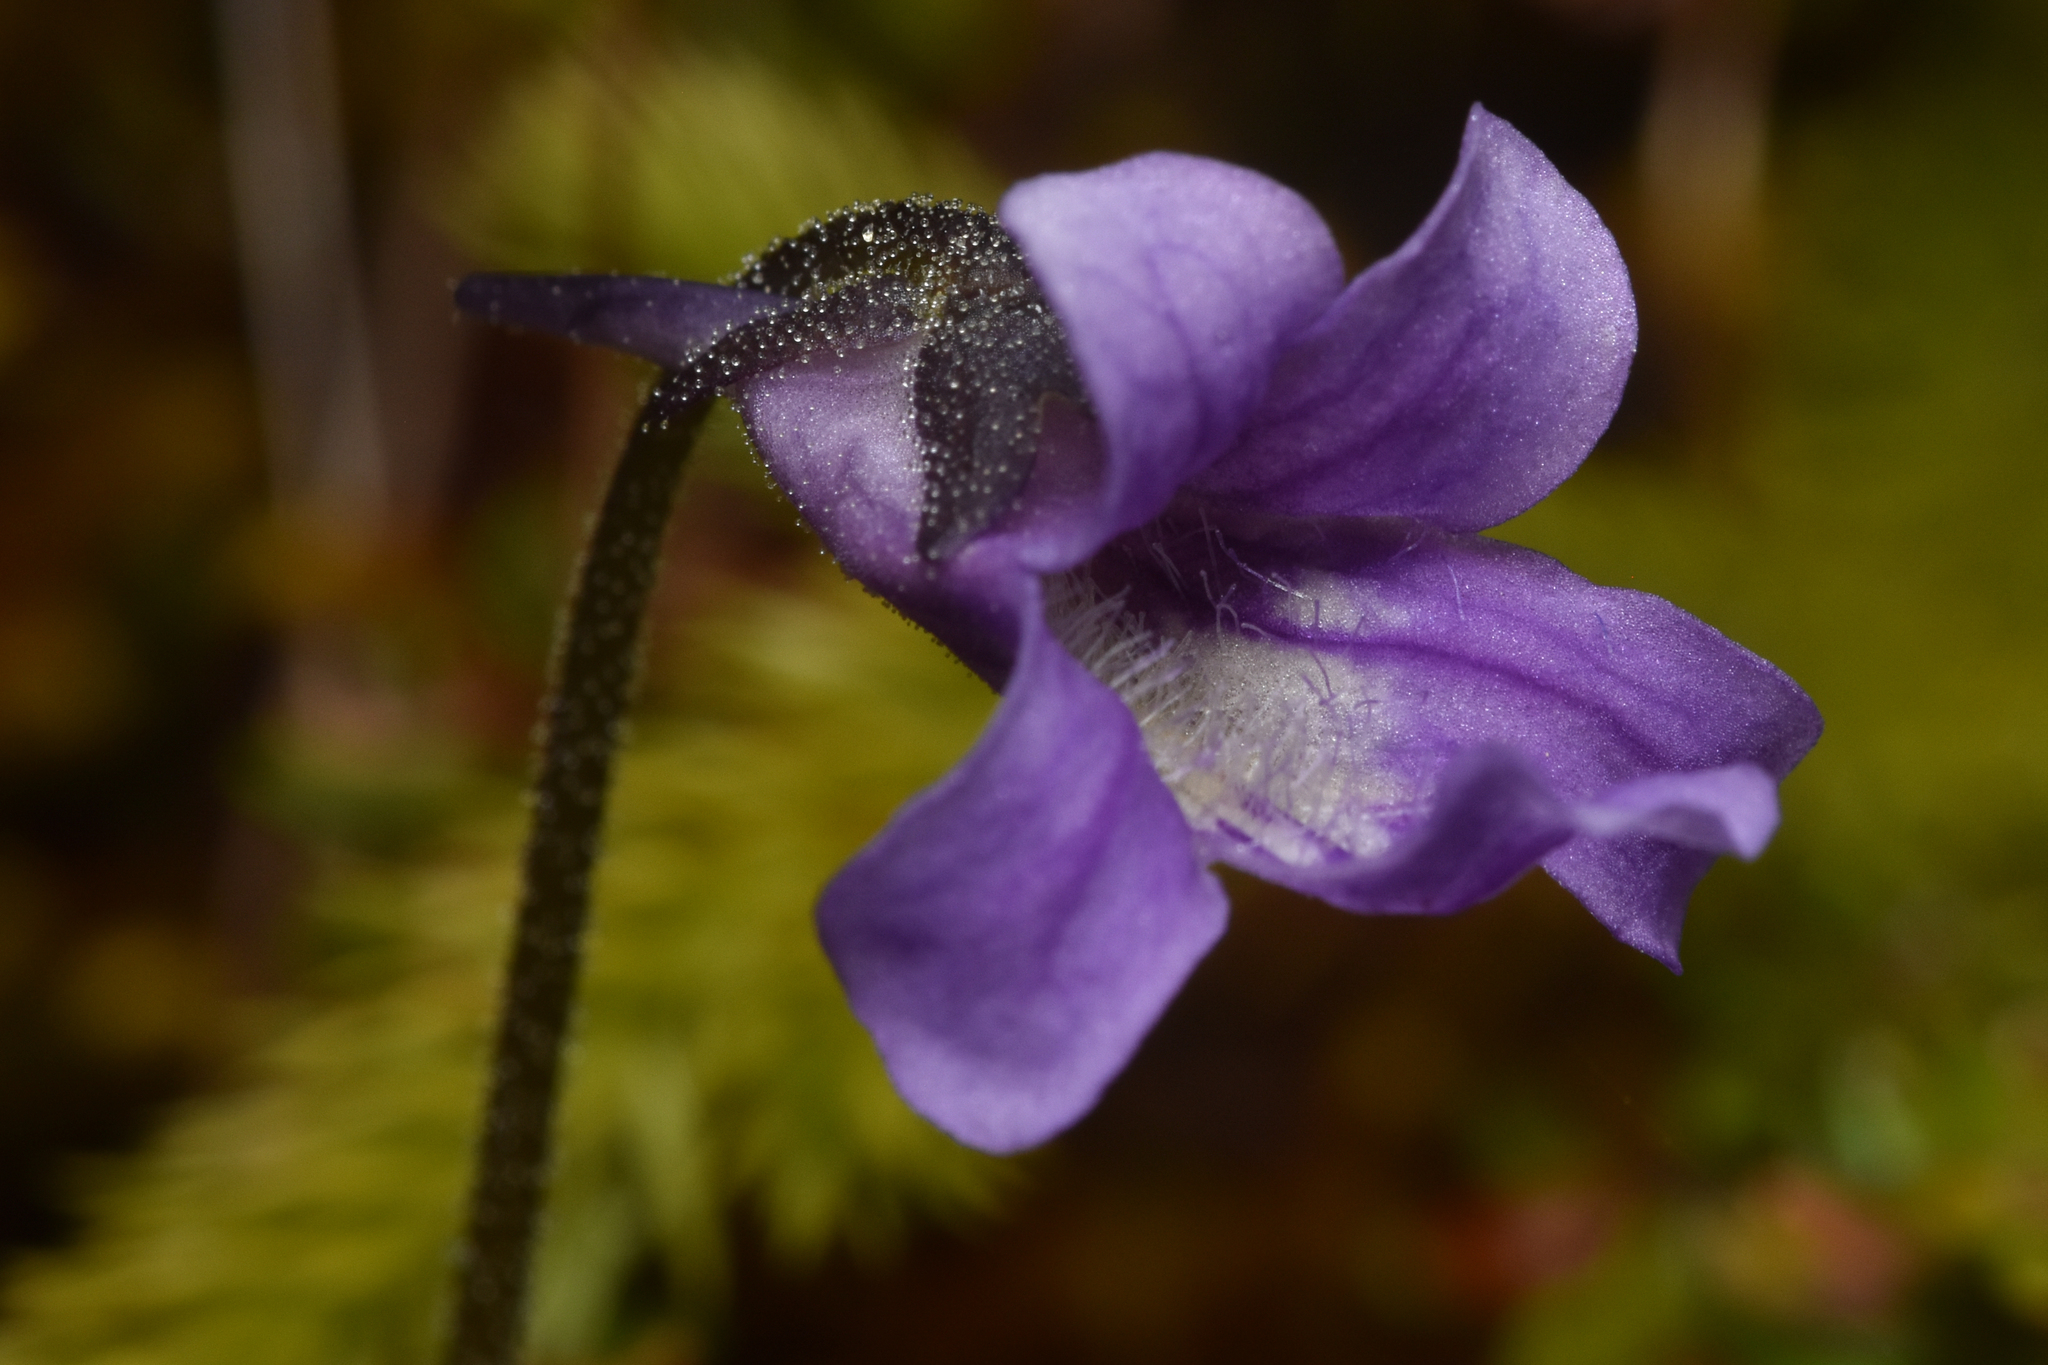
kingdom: Plantae
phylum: Tracheophyta
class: Magnoliopsida
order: Lamiales
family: Lentibulariaceae
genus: Pinguicula
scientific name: Pinguicula vulgaris
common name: Common butterwort
